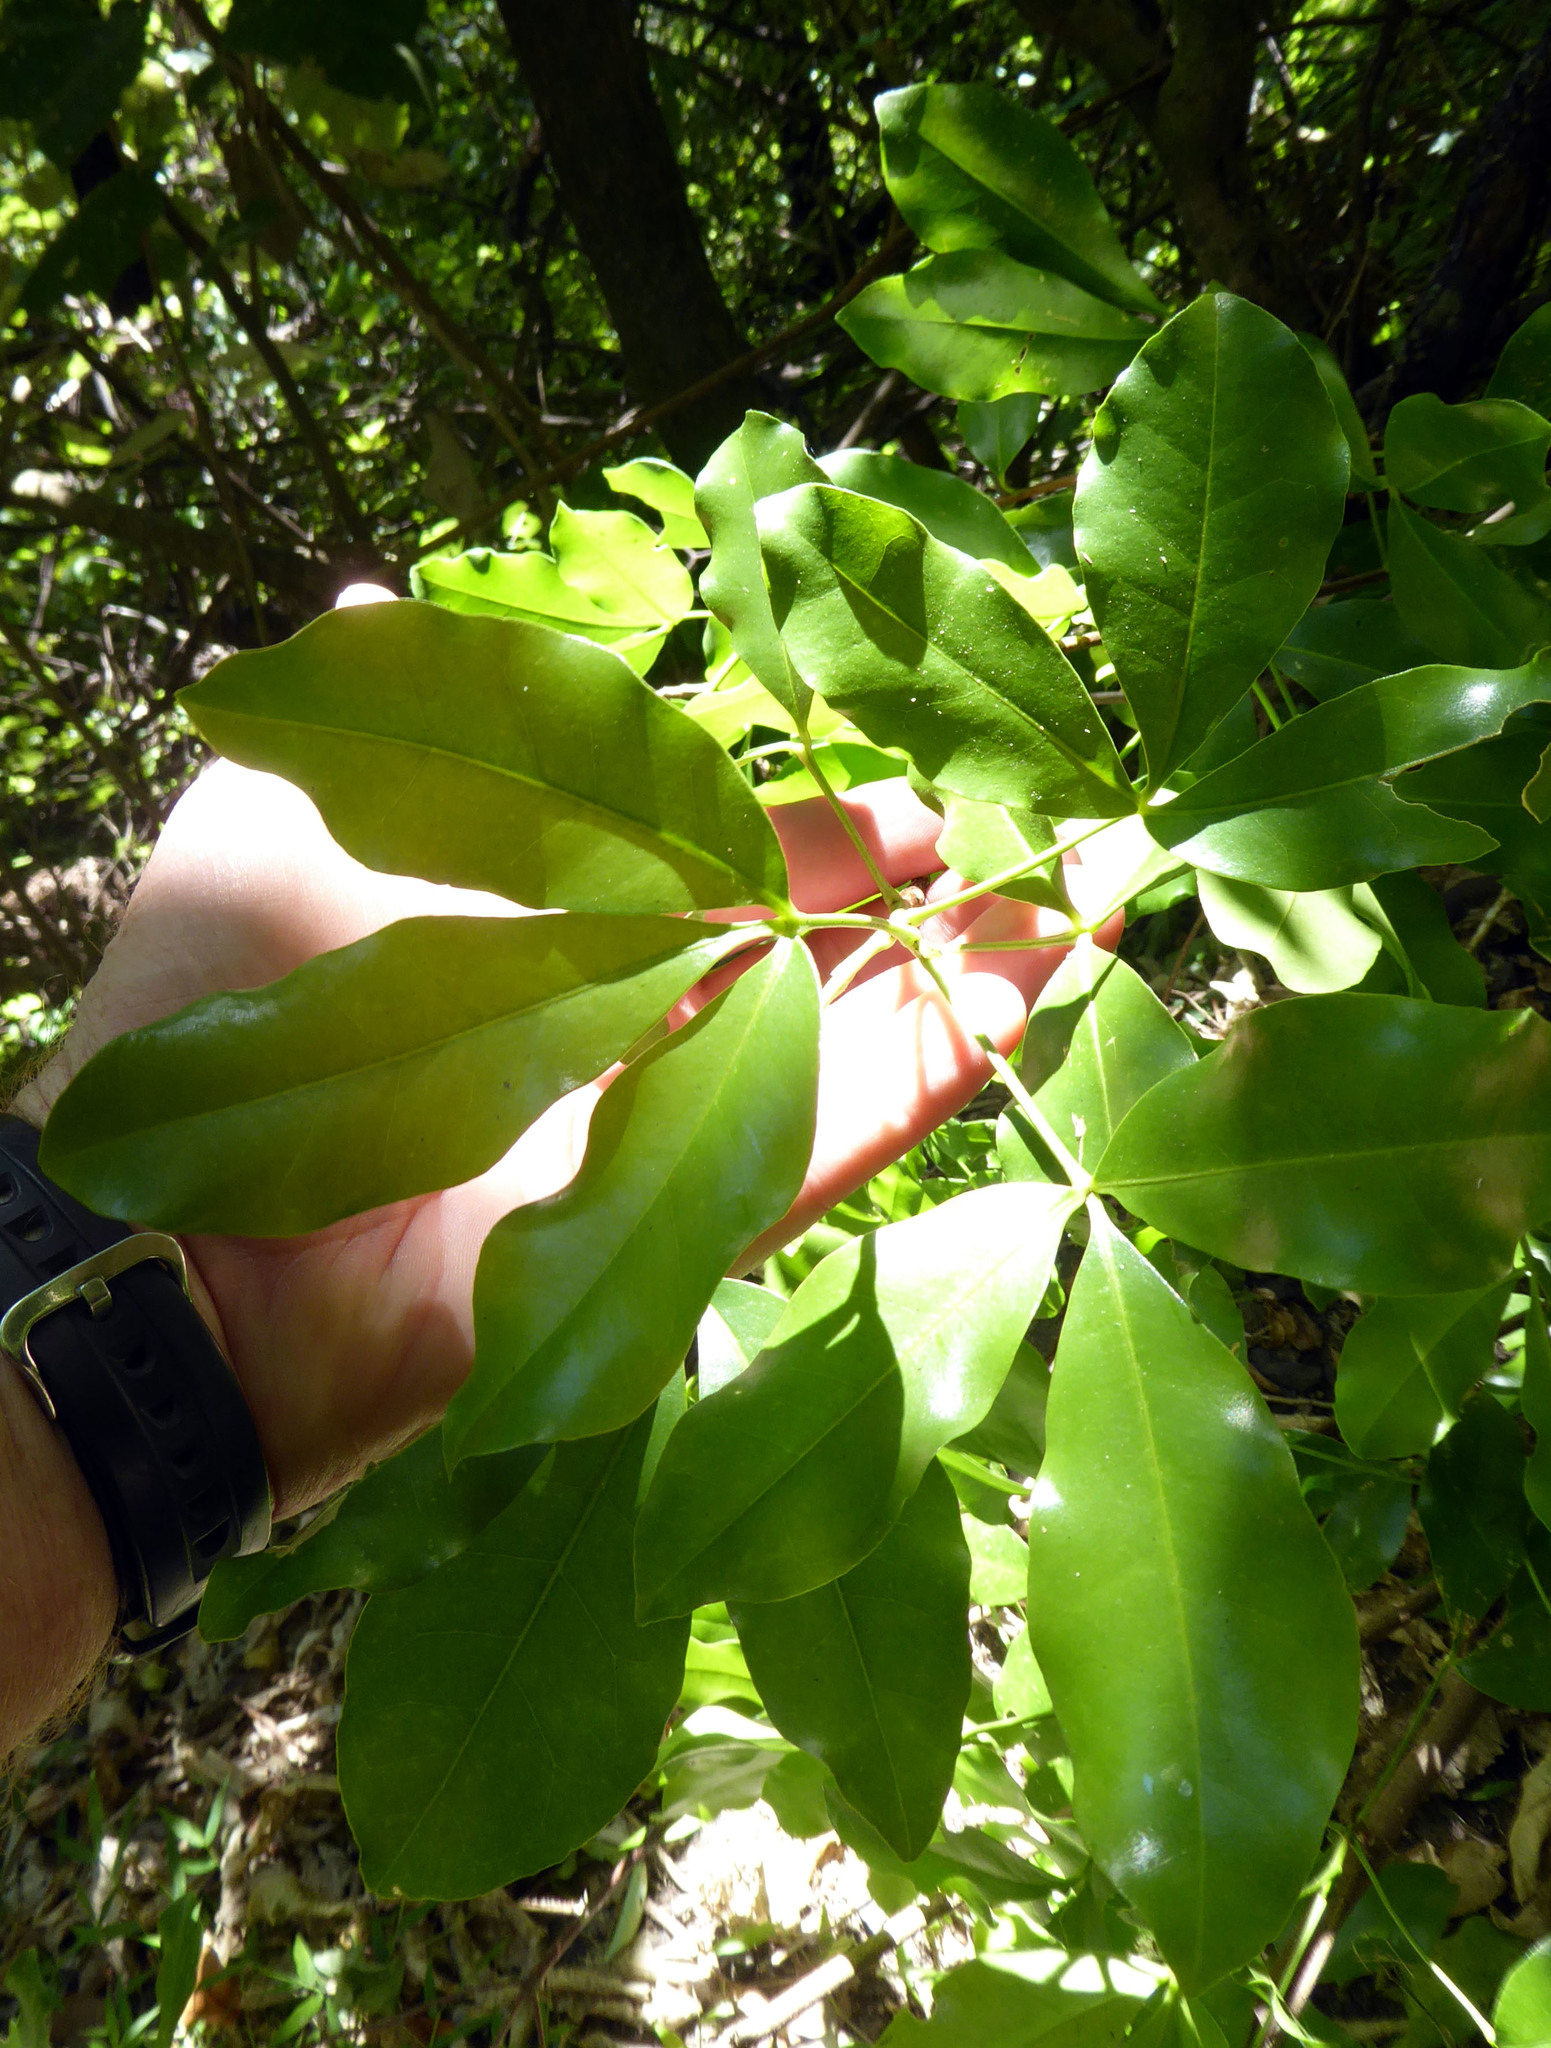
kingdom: Plantae
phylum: Tracheophyta
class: Magnoliopsida
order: Sapindales
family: Rutaceae
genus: Melicope
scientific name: Melicope ternata
